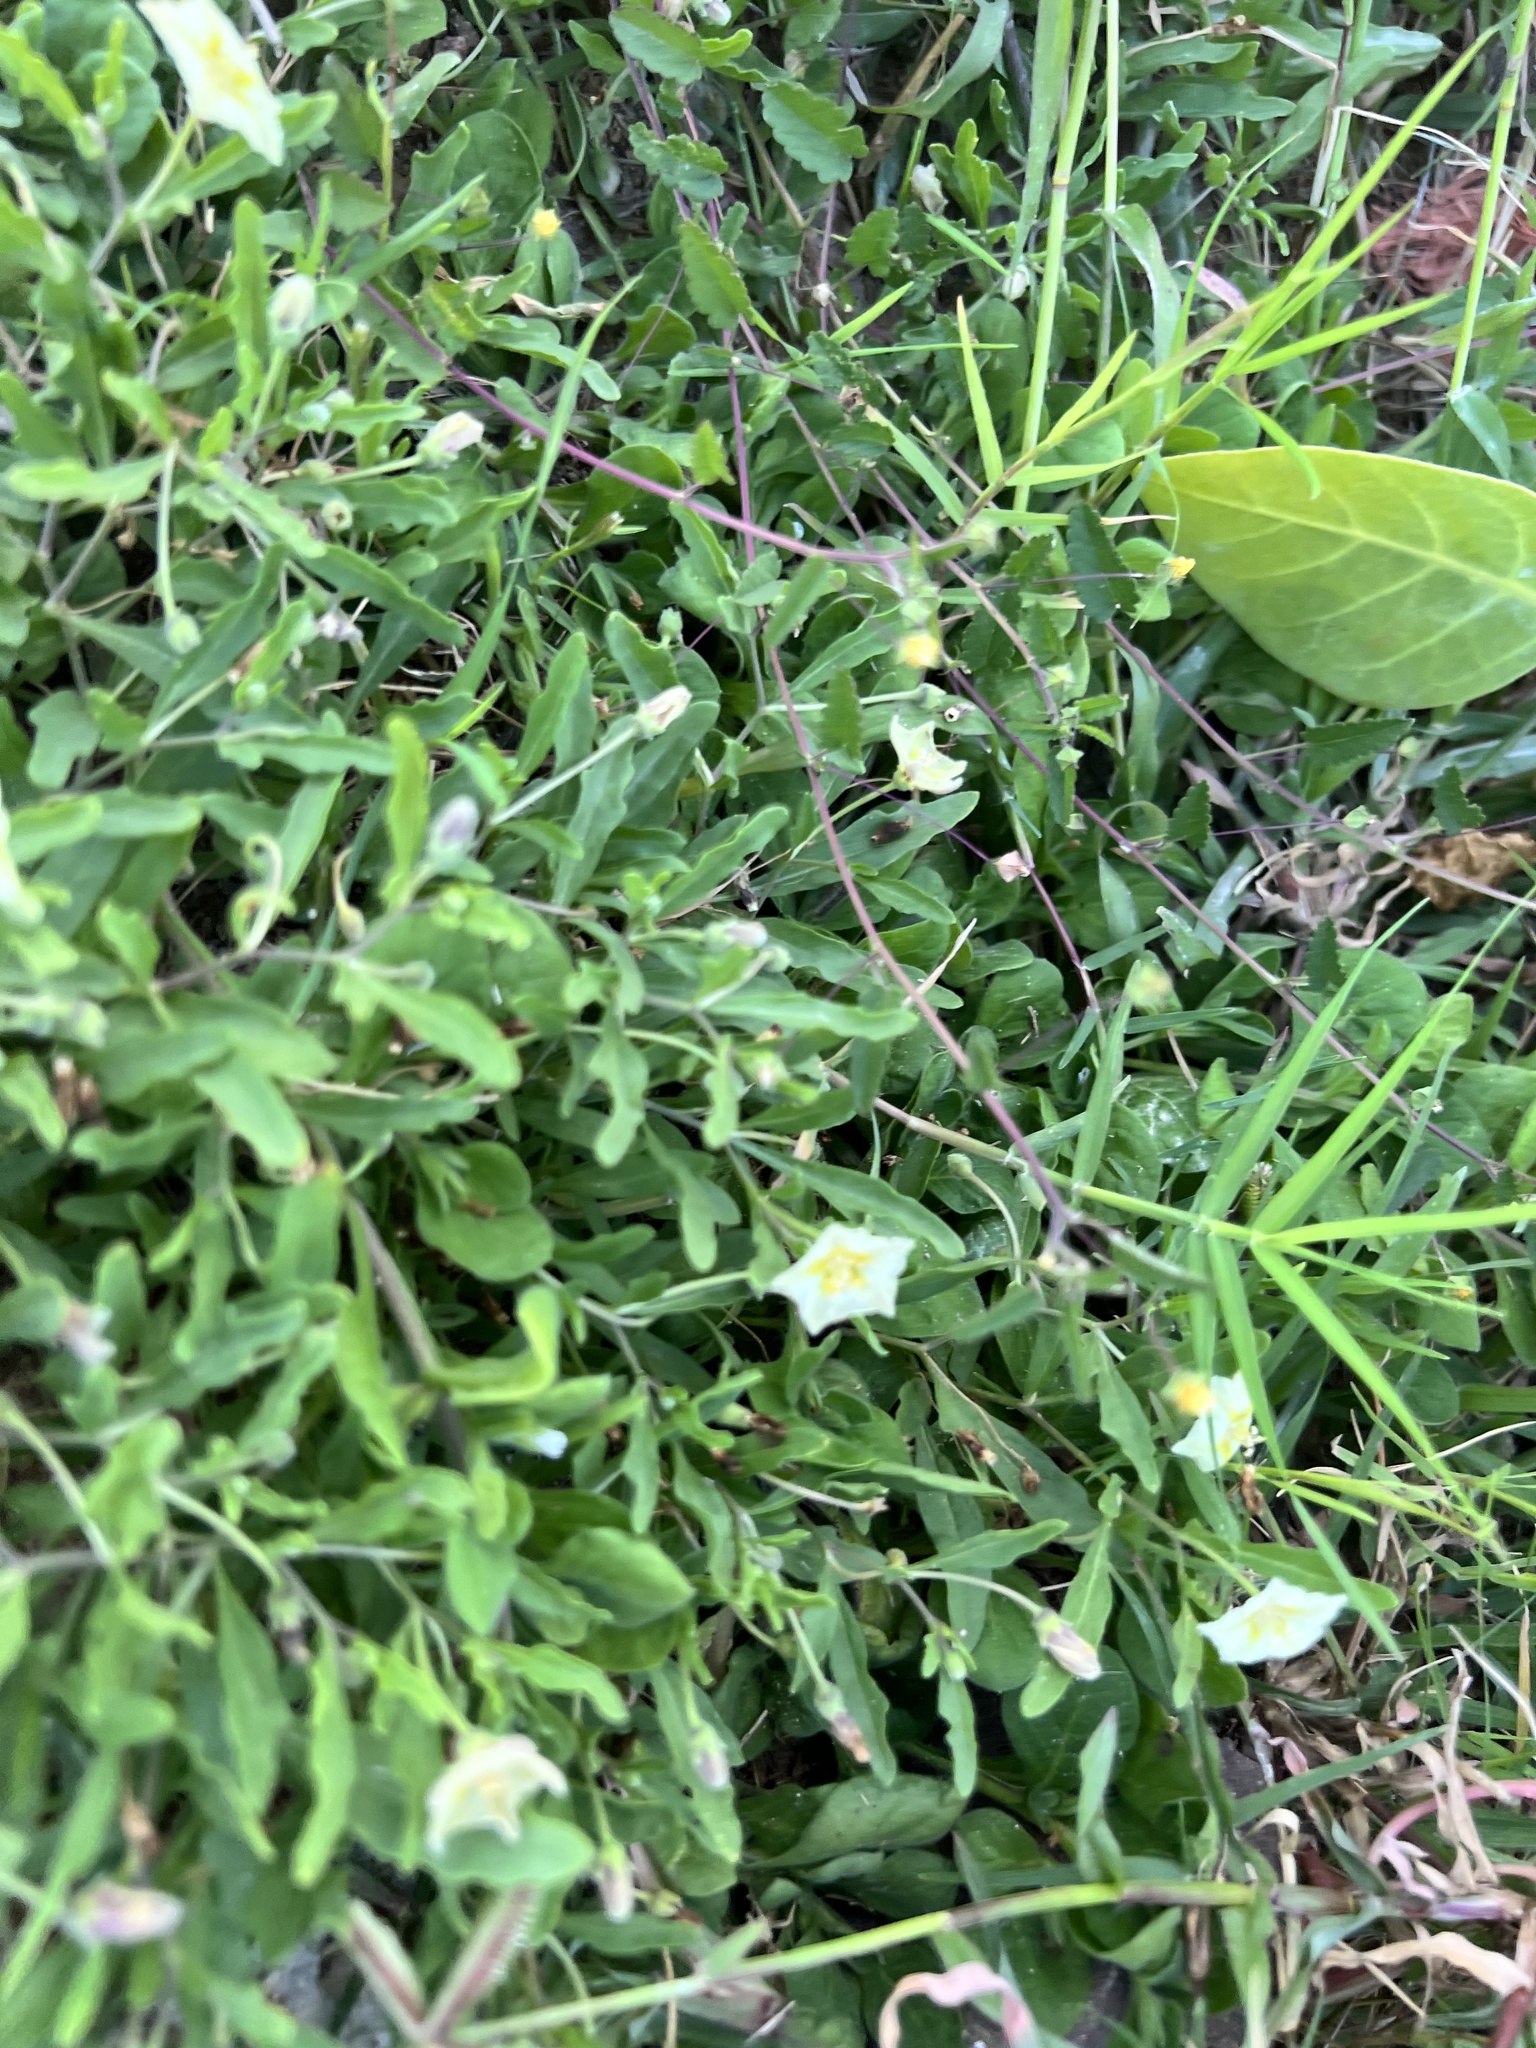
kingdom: Plantae
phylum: Tracheophyta
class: Magnoliopsida
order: Solanales
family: Solanaceae
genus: Chamaesaracha
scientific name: Chamaesaracha edwardsiana
